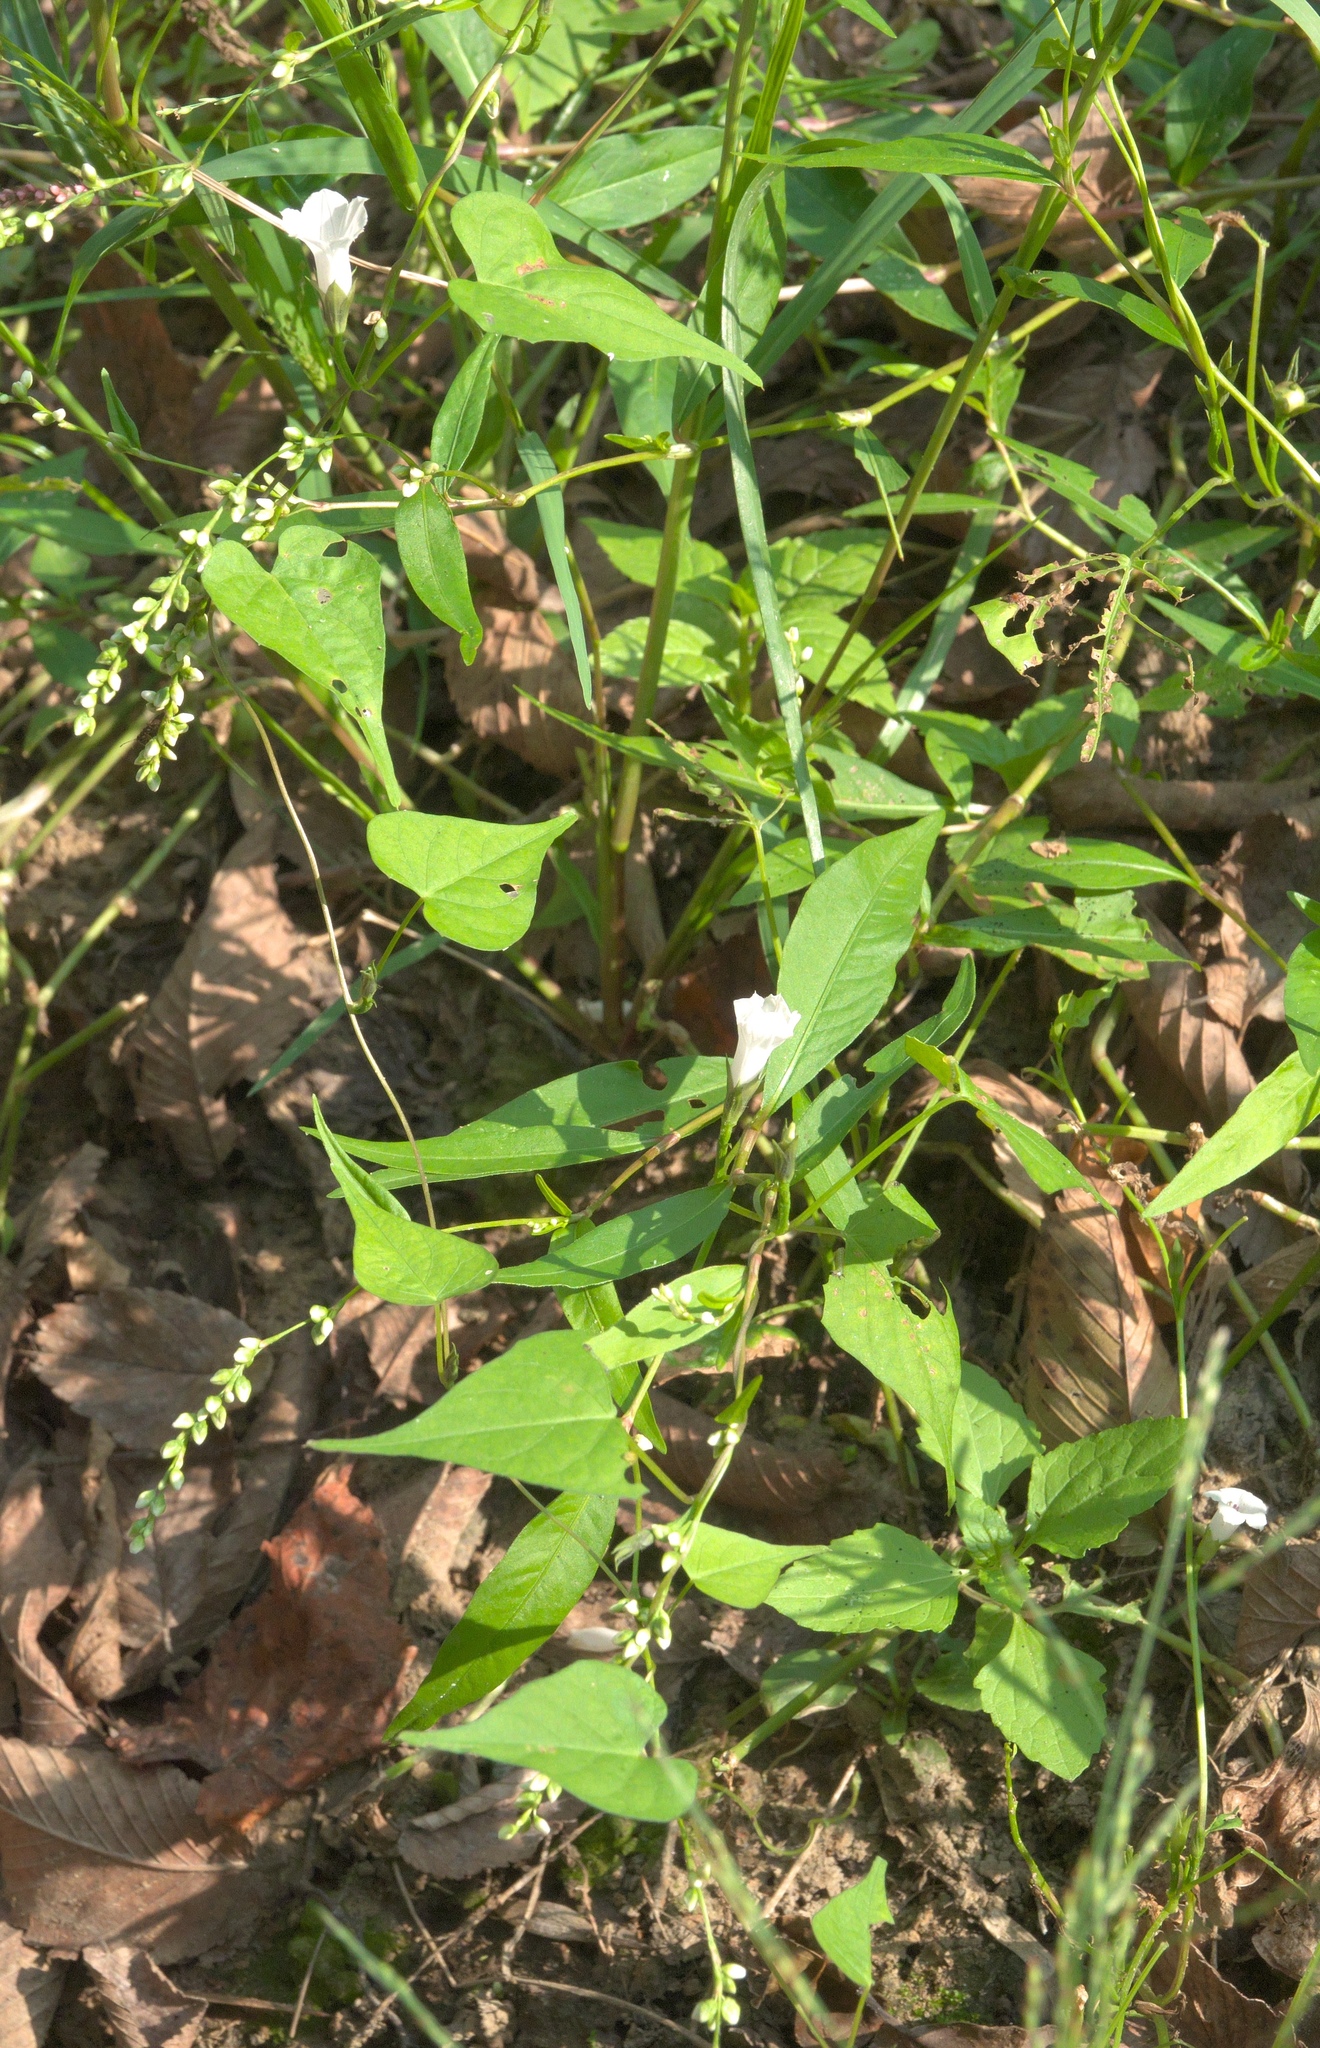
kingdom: Plantae
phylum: Tracheophyta
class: Magnoliopsida
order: Solanales
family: Convolvulaceae
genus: Ipomoea
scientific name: Ipomoea lacunosa
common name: White morning-glory
